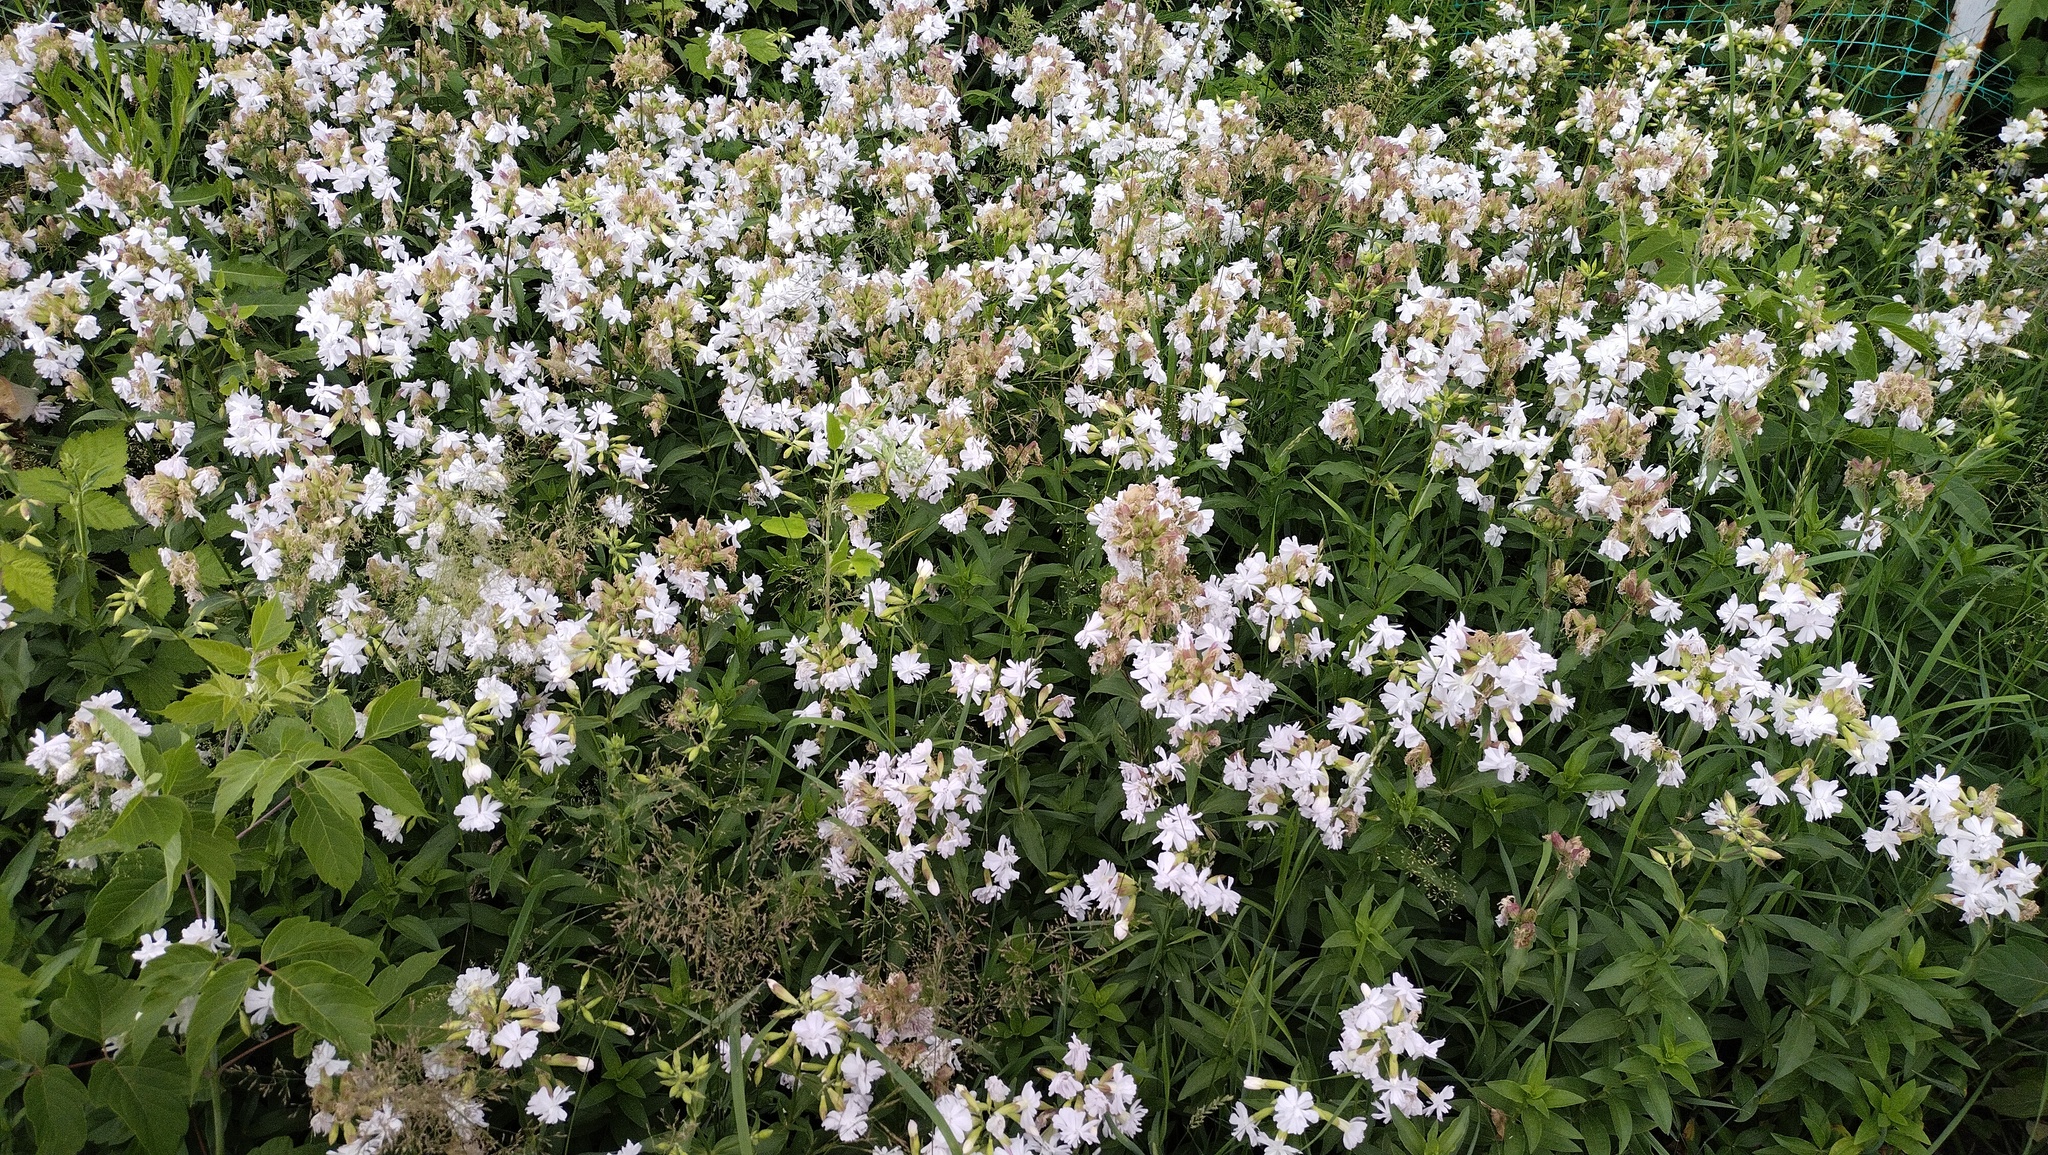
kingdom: Plantae
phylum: Tracheophyta
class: Magnoliopsida
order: Caryophyllales
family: Caryophyllaceae
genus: Saponaria
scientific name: Saponaria officinalis
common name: Soapwort
